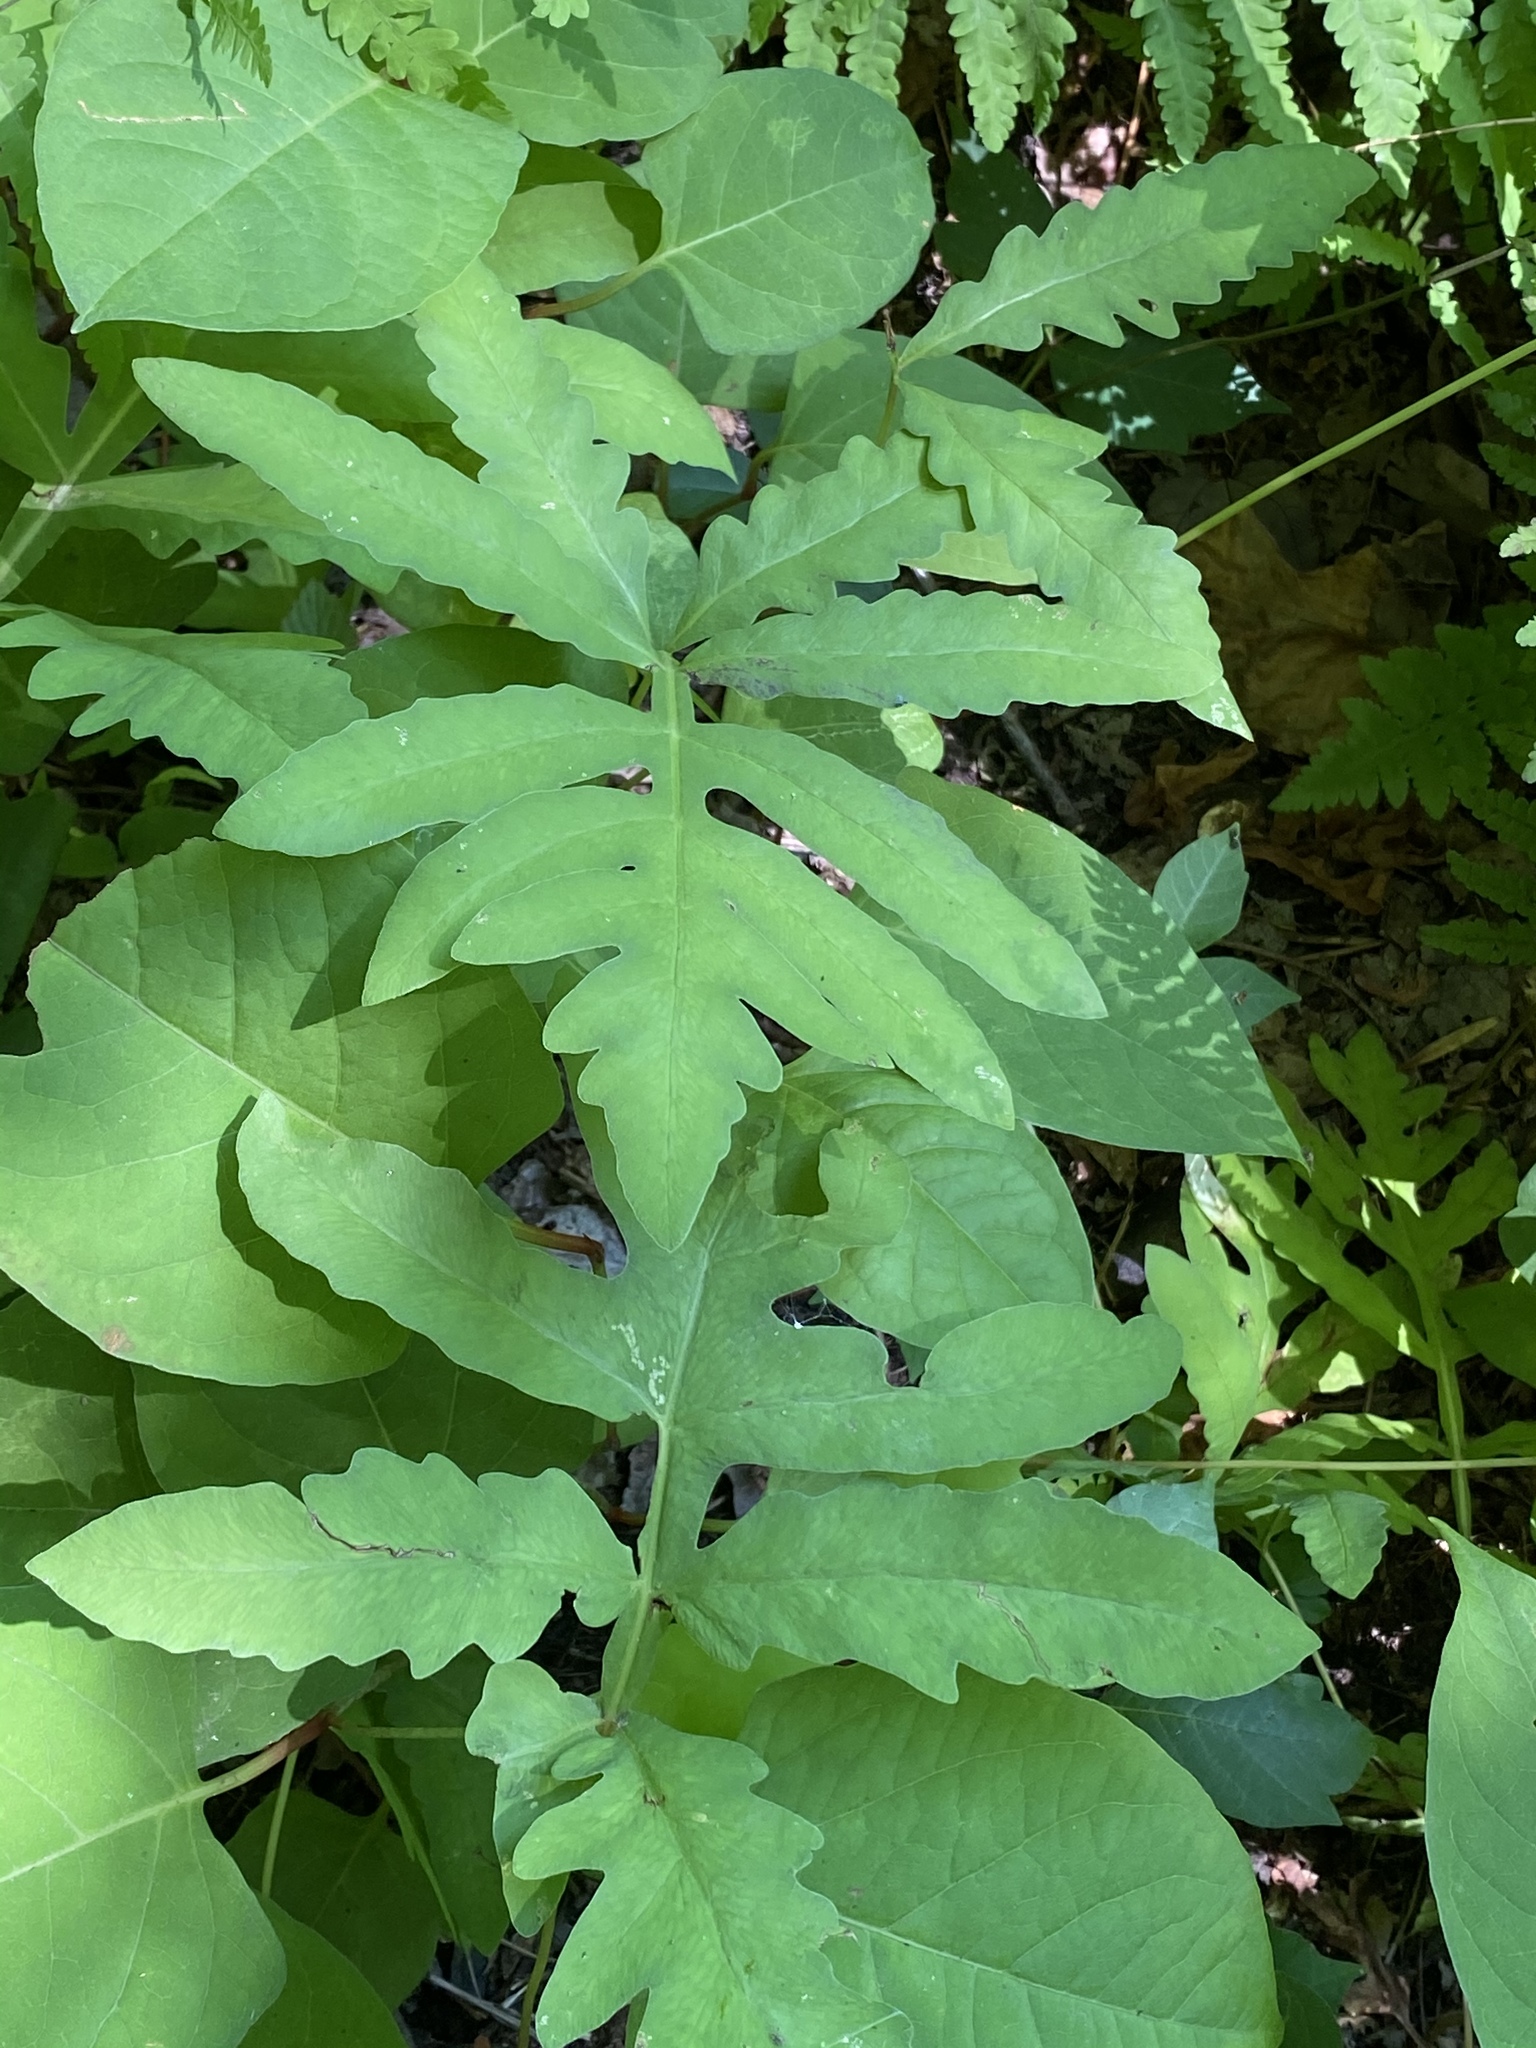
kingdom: Plantae
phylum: Tracheophyta
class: Polypodiopsida
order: Polypodiales
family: Onocleaceae
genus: Onoclea
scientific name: Onoclea sensibilis
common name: Sensitive fern
